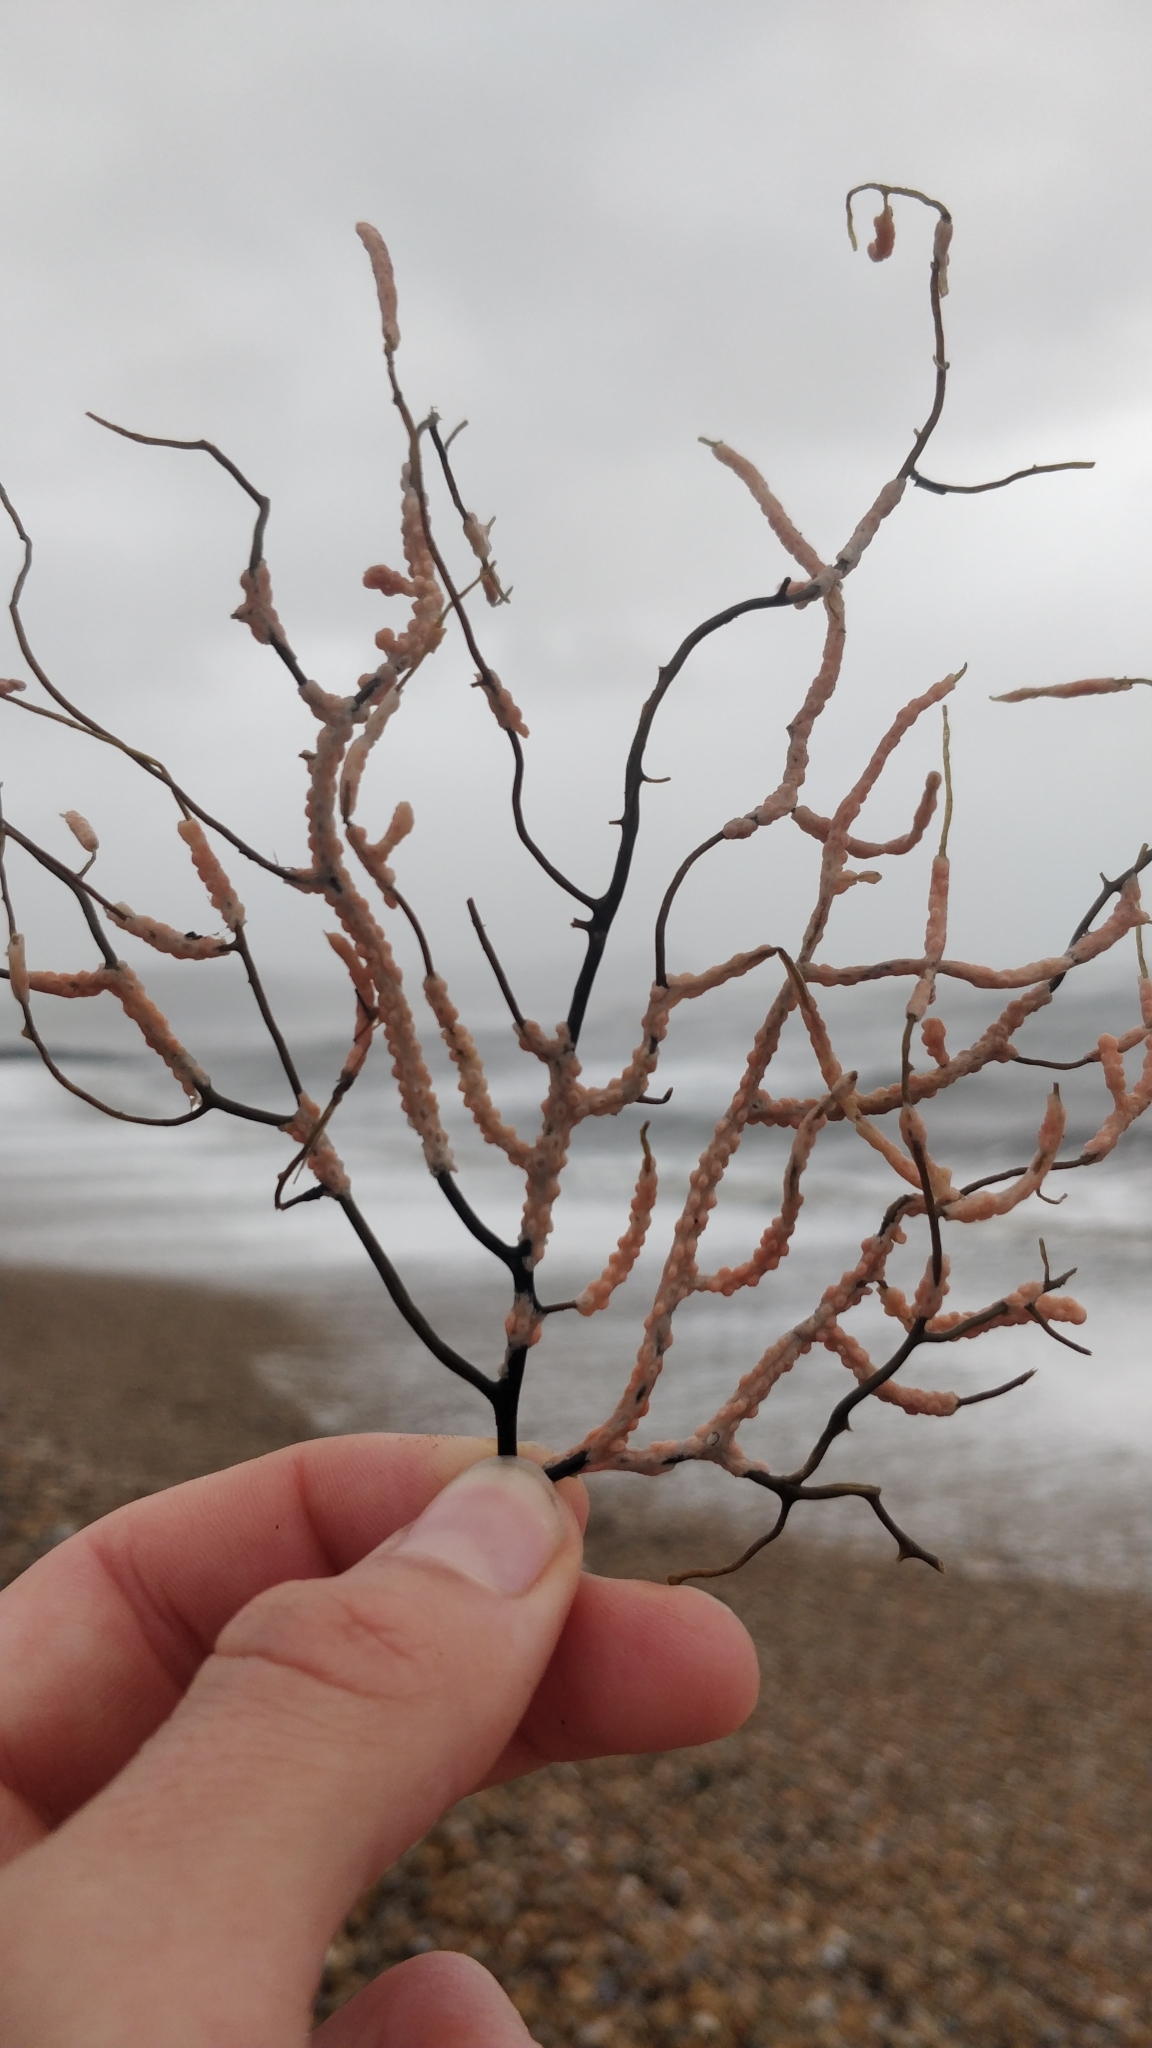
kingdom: Animalia
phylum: Cnidaria
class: Anthozoa
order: Malacalcyonacea
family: Eunicellidae
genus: Eunicella
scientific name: Eunicella verrucosa
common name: Pink sea-fan
